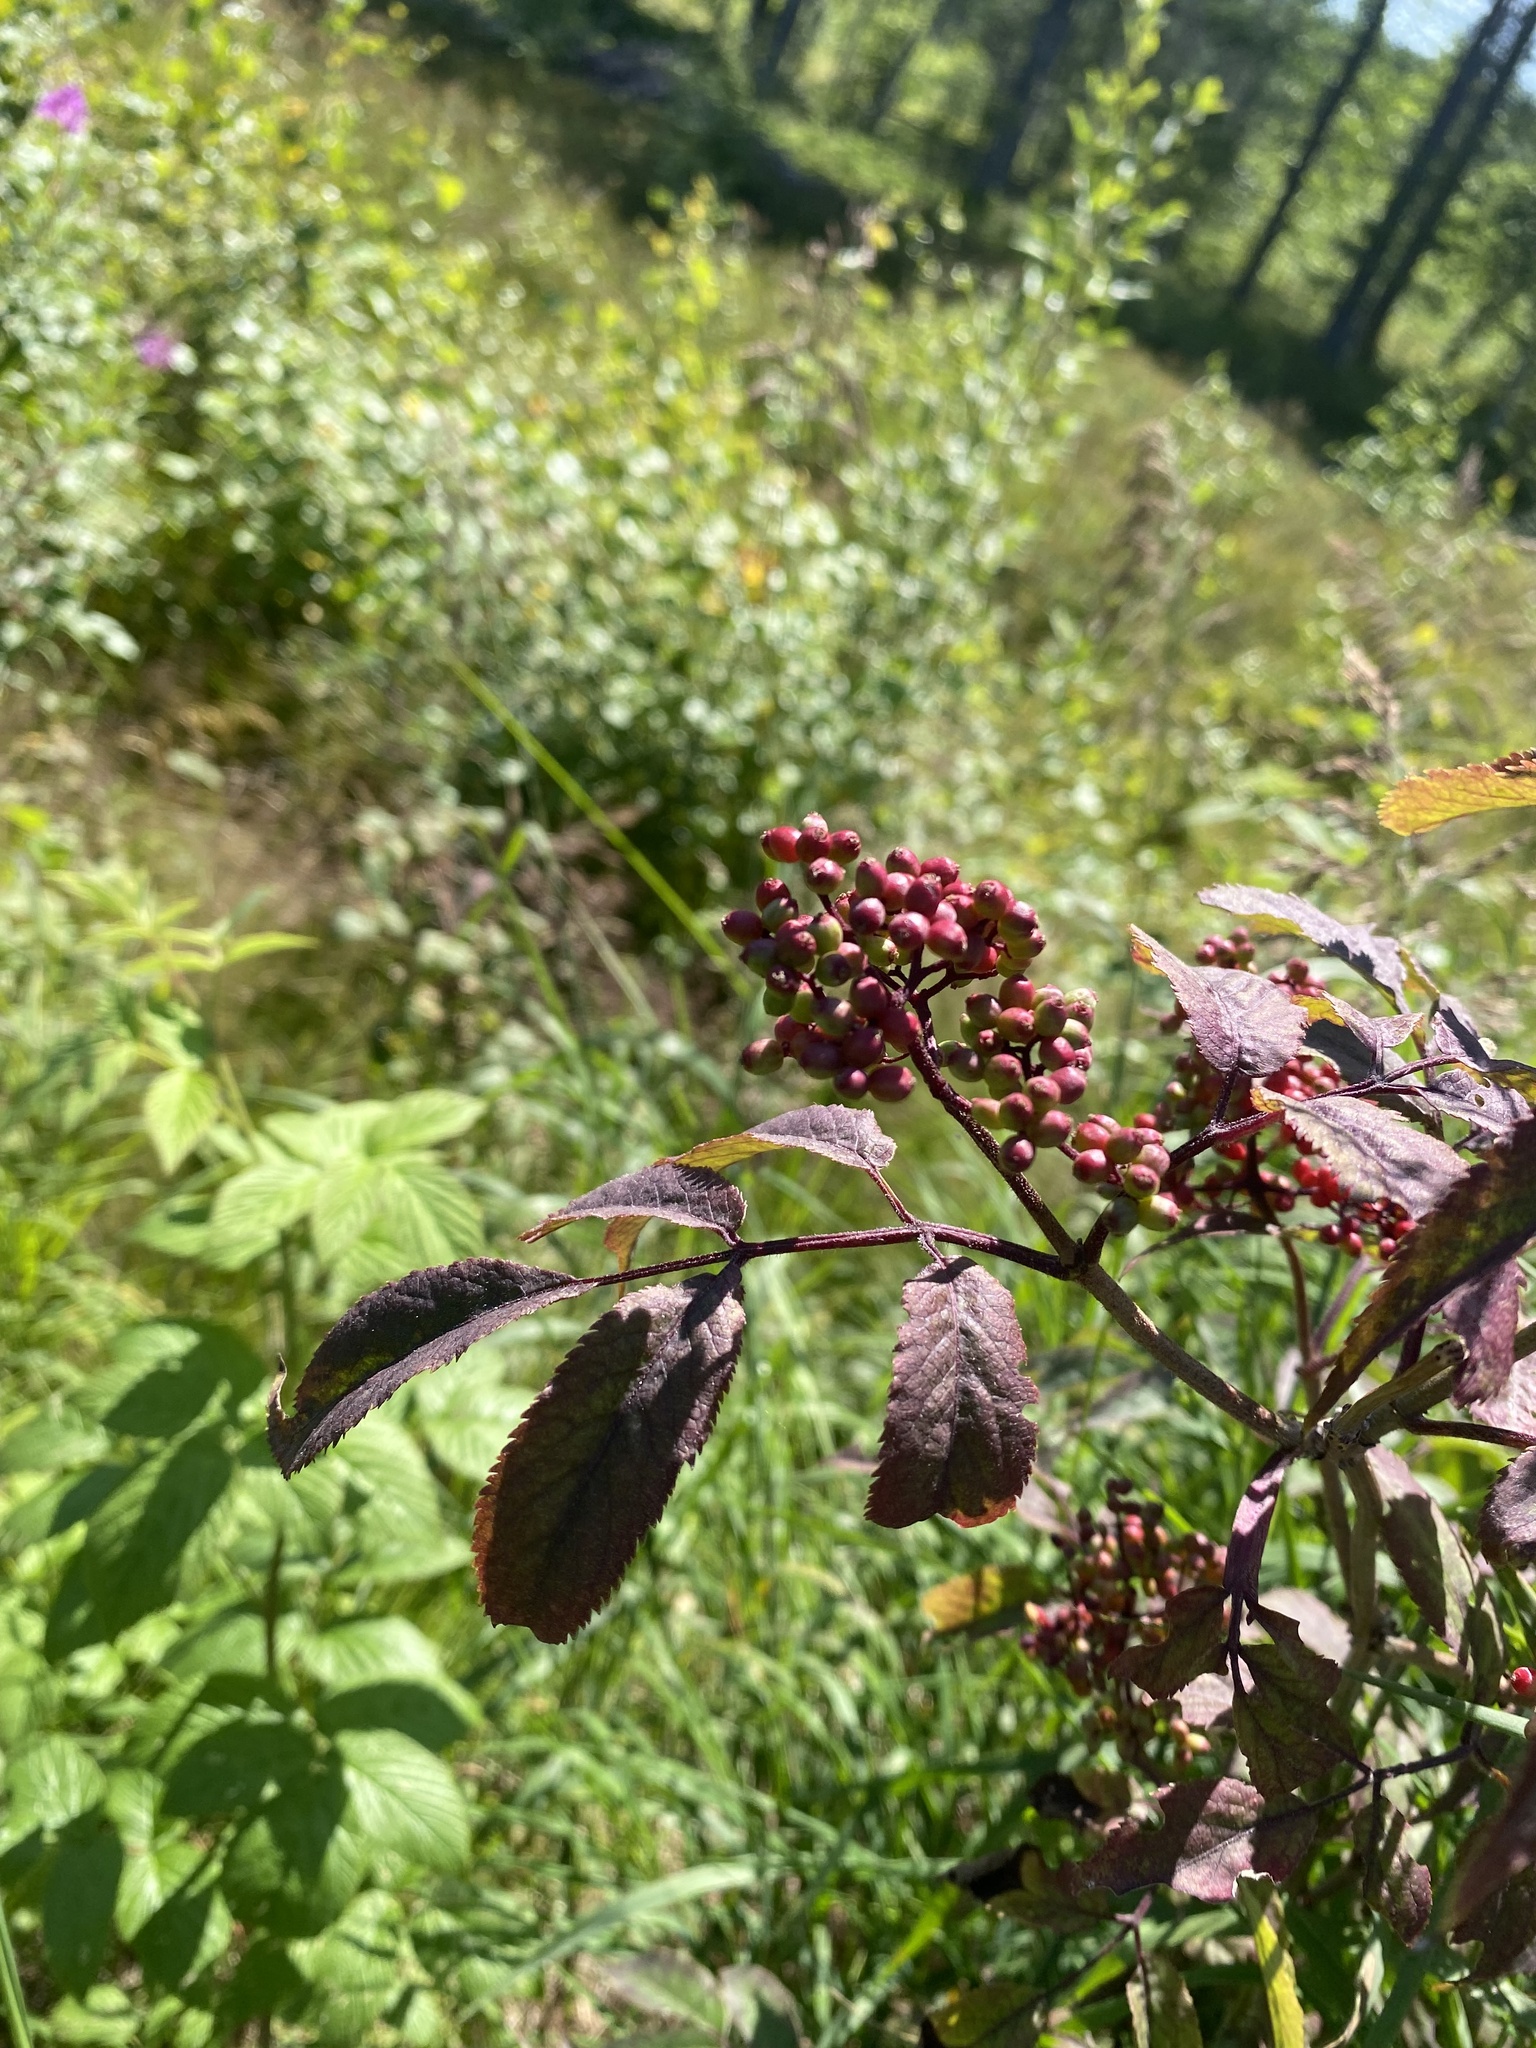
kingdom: Plantae
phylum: Tracheophyta
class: Magnoliopsida
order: Dipsacales
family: Viburnaceae
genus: Sambucus
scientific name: Sambucus sibirica
